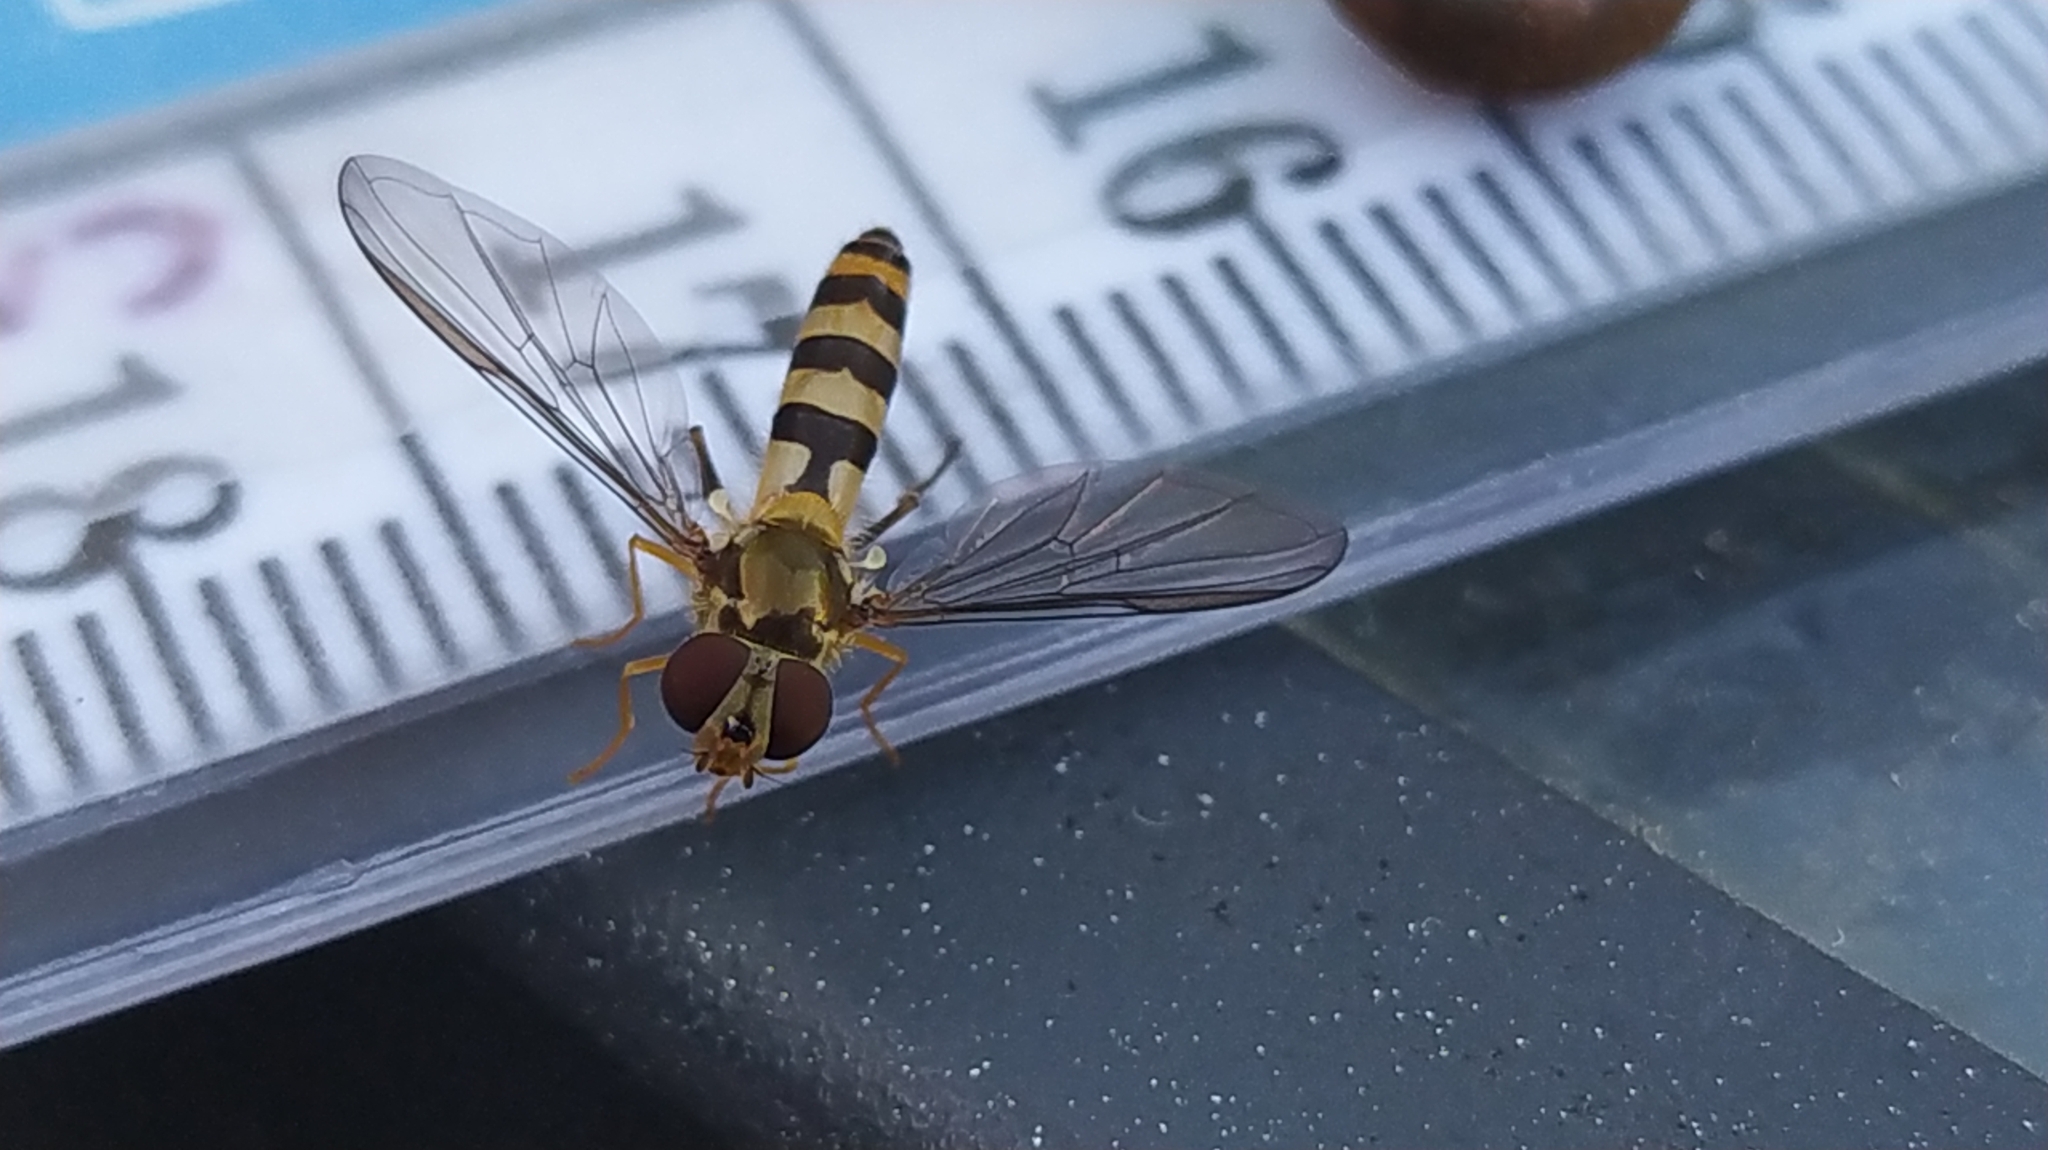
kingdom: Animalia
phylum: Arthropoda
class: Insecta
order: Diptera
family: Syrphidae
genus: Meliscaeva
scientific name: Meliscaeva cinctella
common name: American thintail fly
